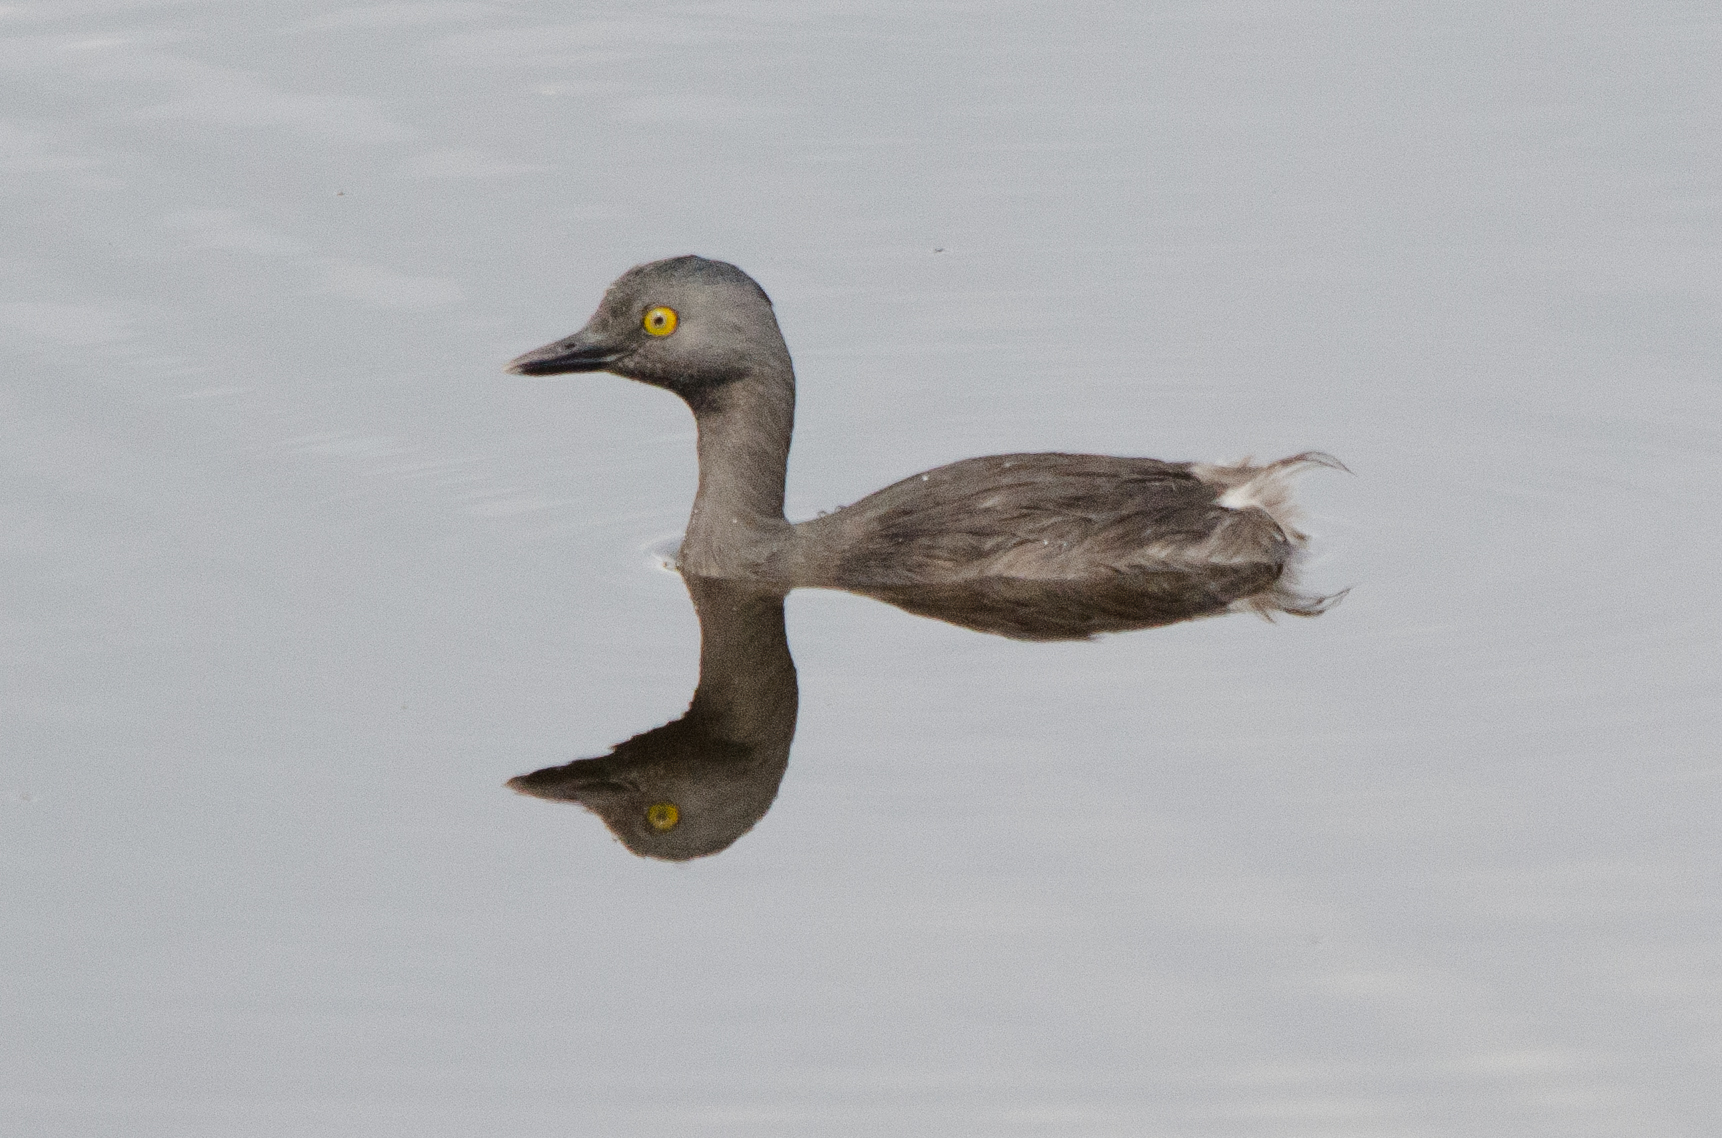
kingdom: Animalia
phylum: Chordata
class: Aves
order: Podicipediformes
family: Podicipedidae
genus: Tachybaptus
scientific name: Tachybaptus dominicus
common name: Least grebe
